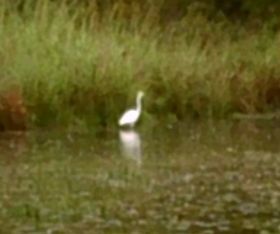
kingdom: Animalia
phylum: Chordata
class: Aves
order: Pelecaniformes
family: Ardeidae
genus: Ardea
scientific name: Ardea alba
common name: Great egret
